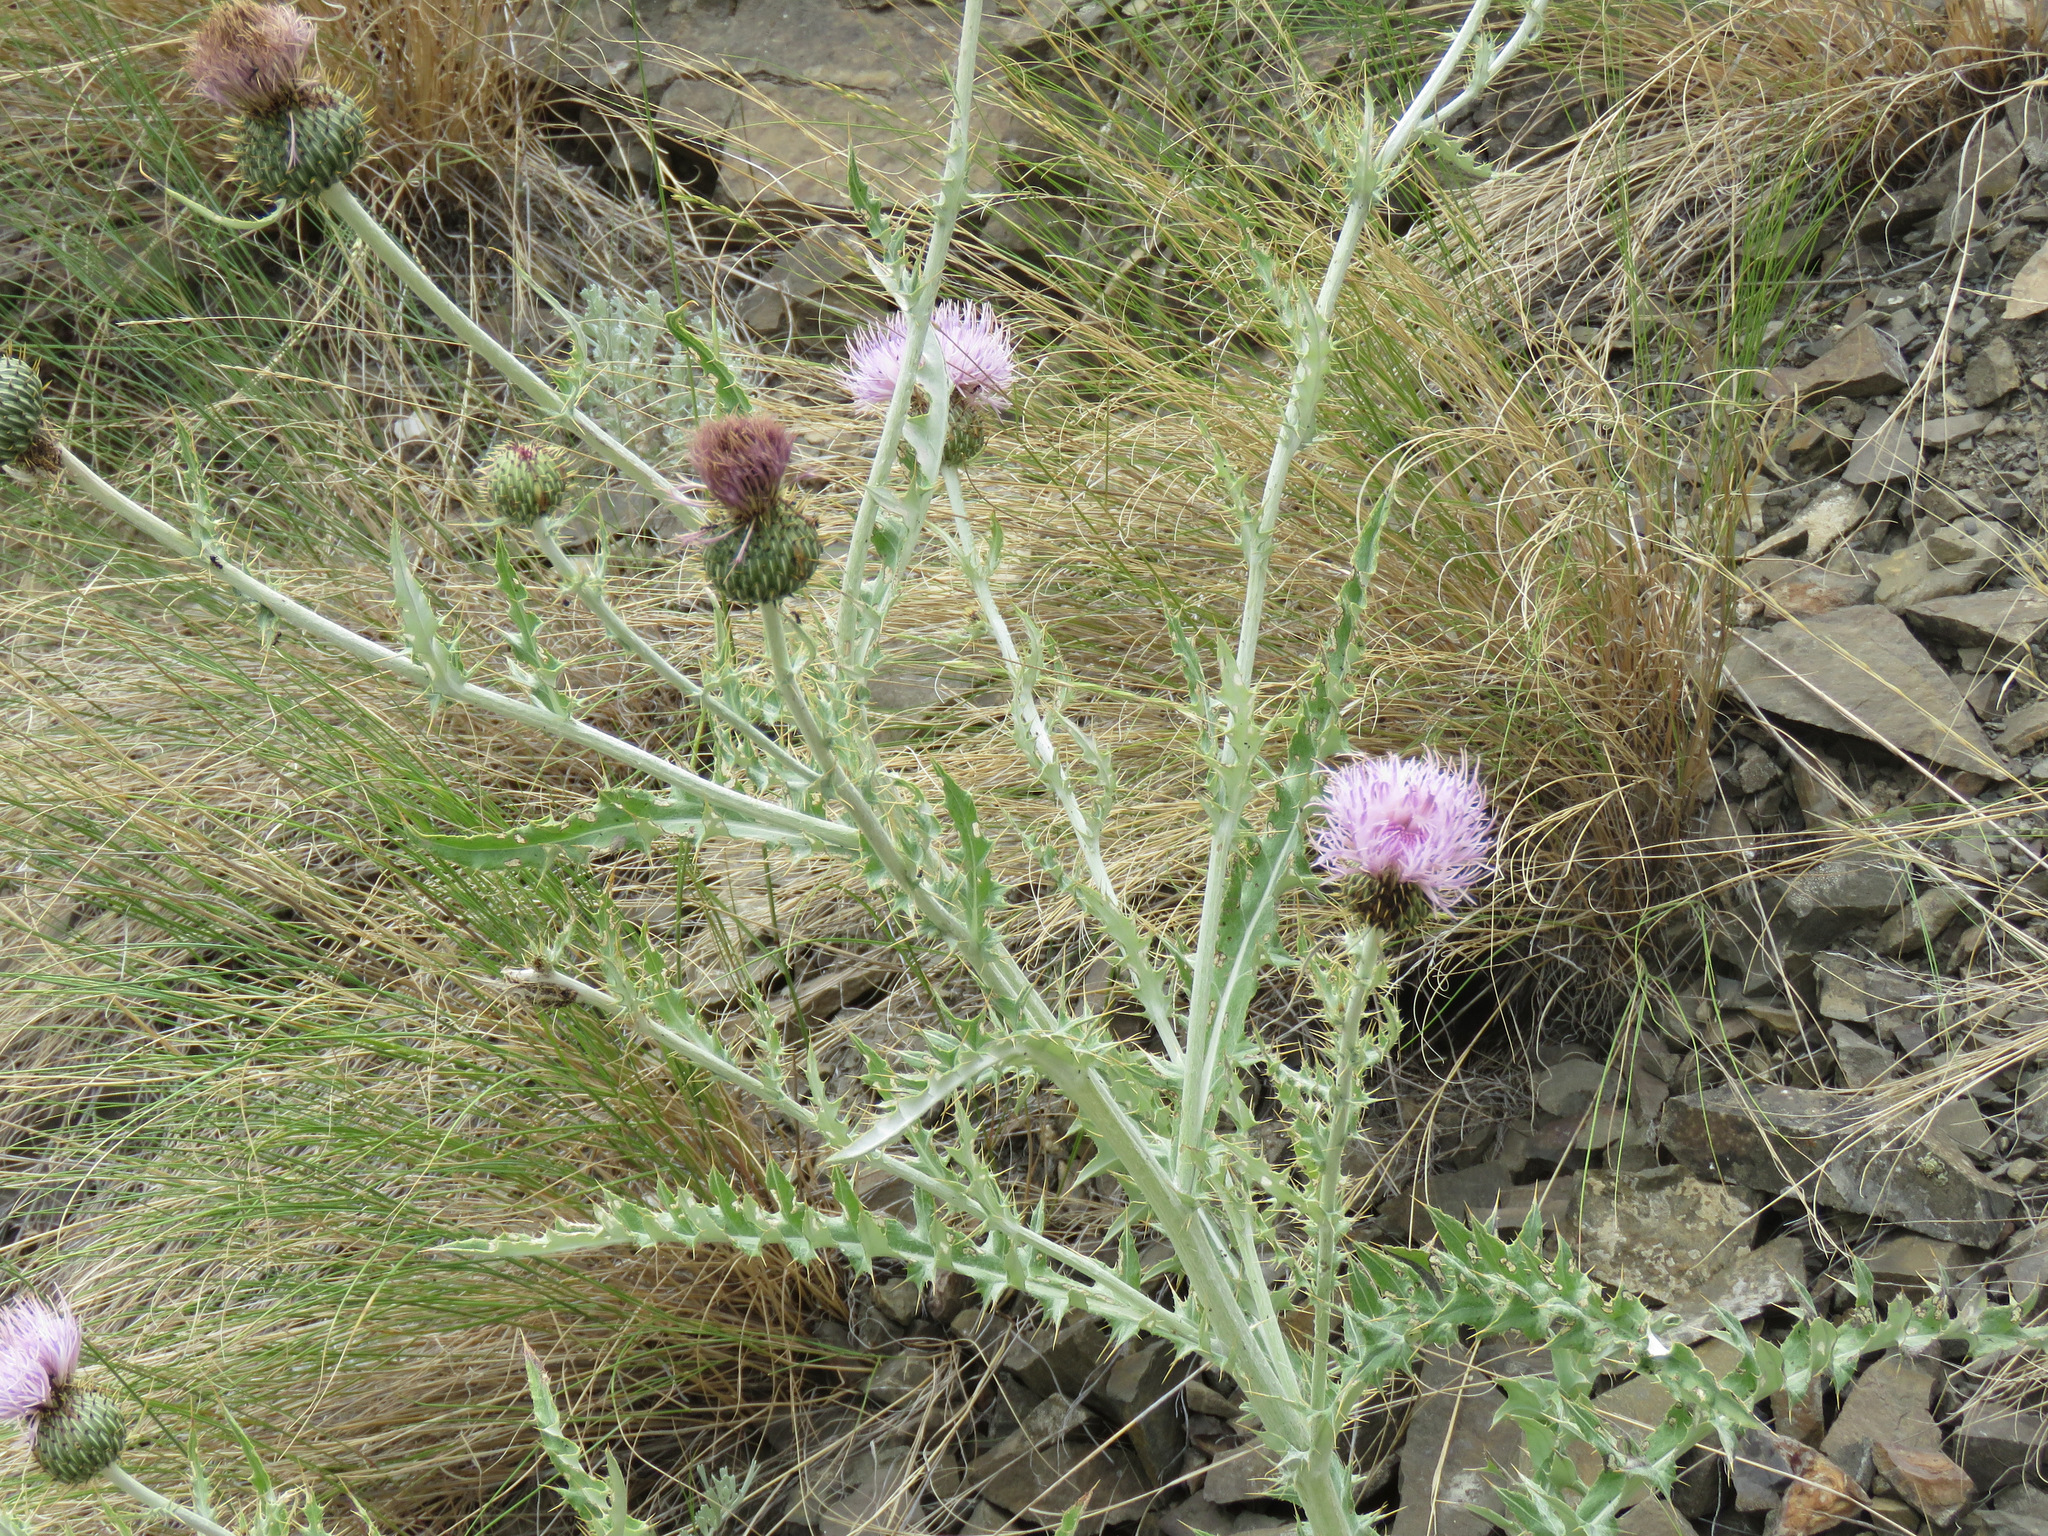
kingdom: Plantae
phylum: Tracheophyta
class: Magnoliopsida
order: Asterales
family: Asteraceae
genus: Cirsium
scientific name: Cirsium undulatum
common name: Pasture thistle
